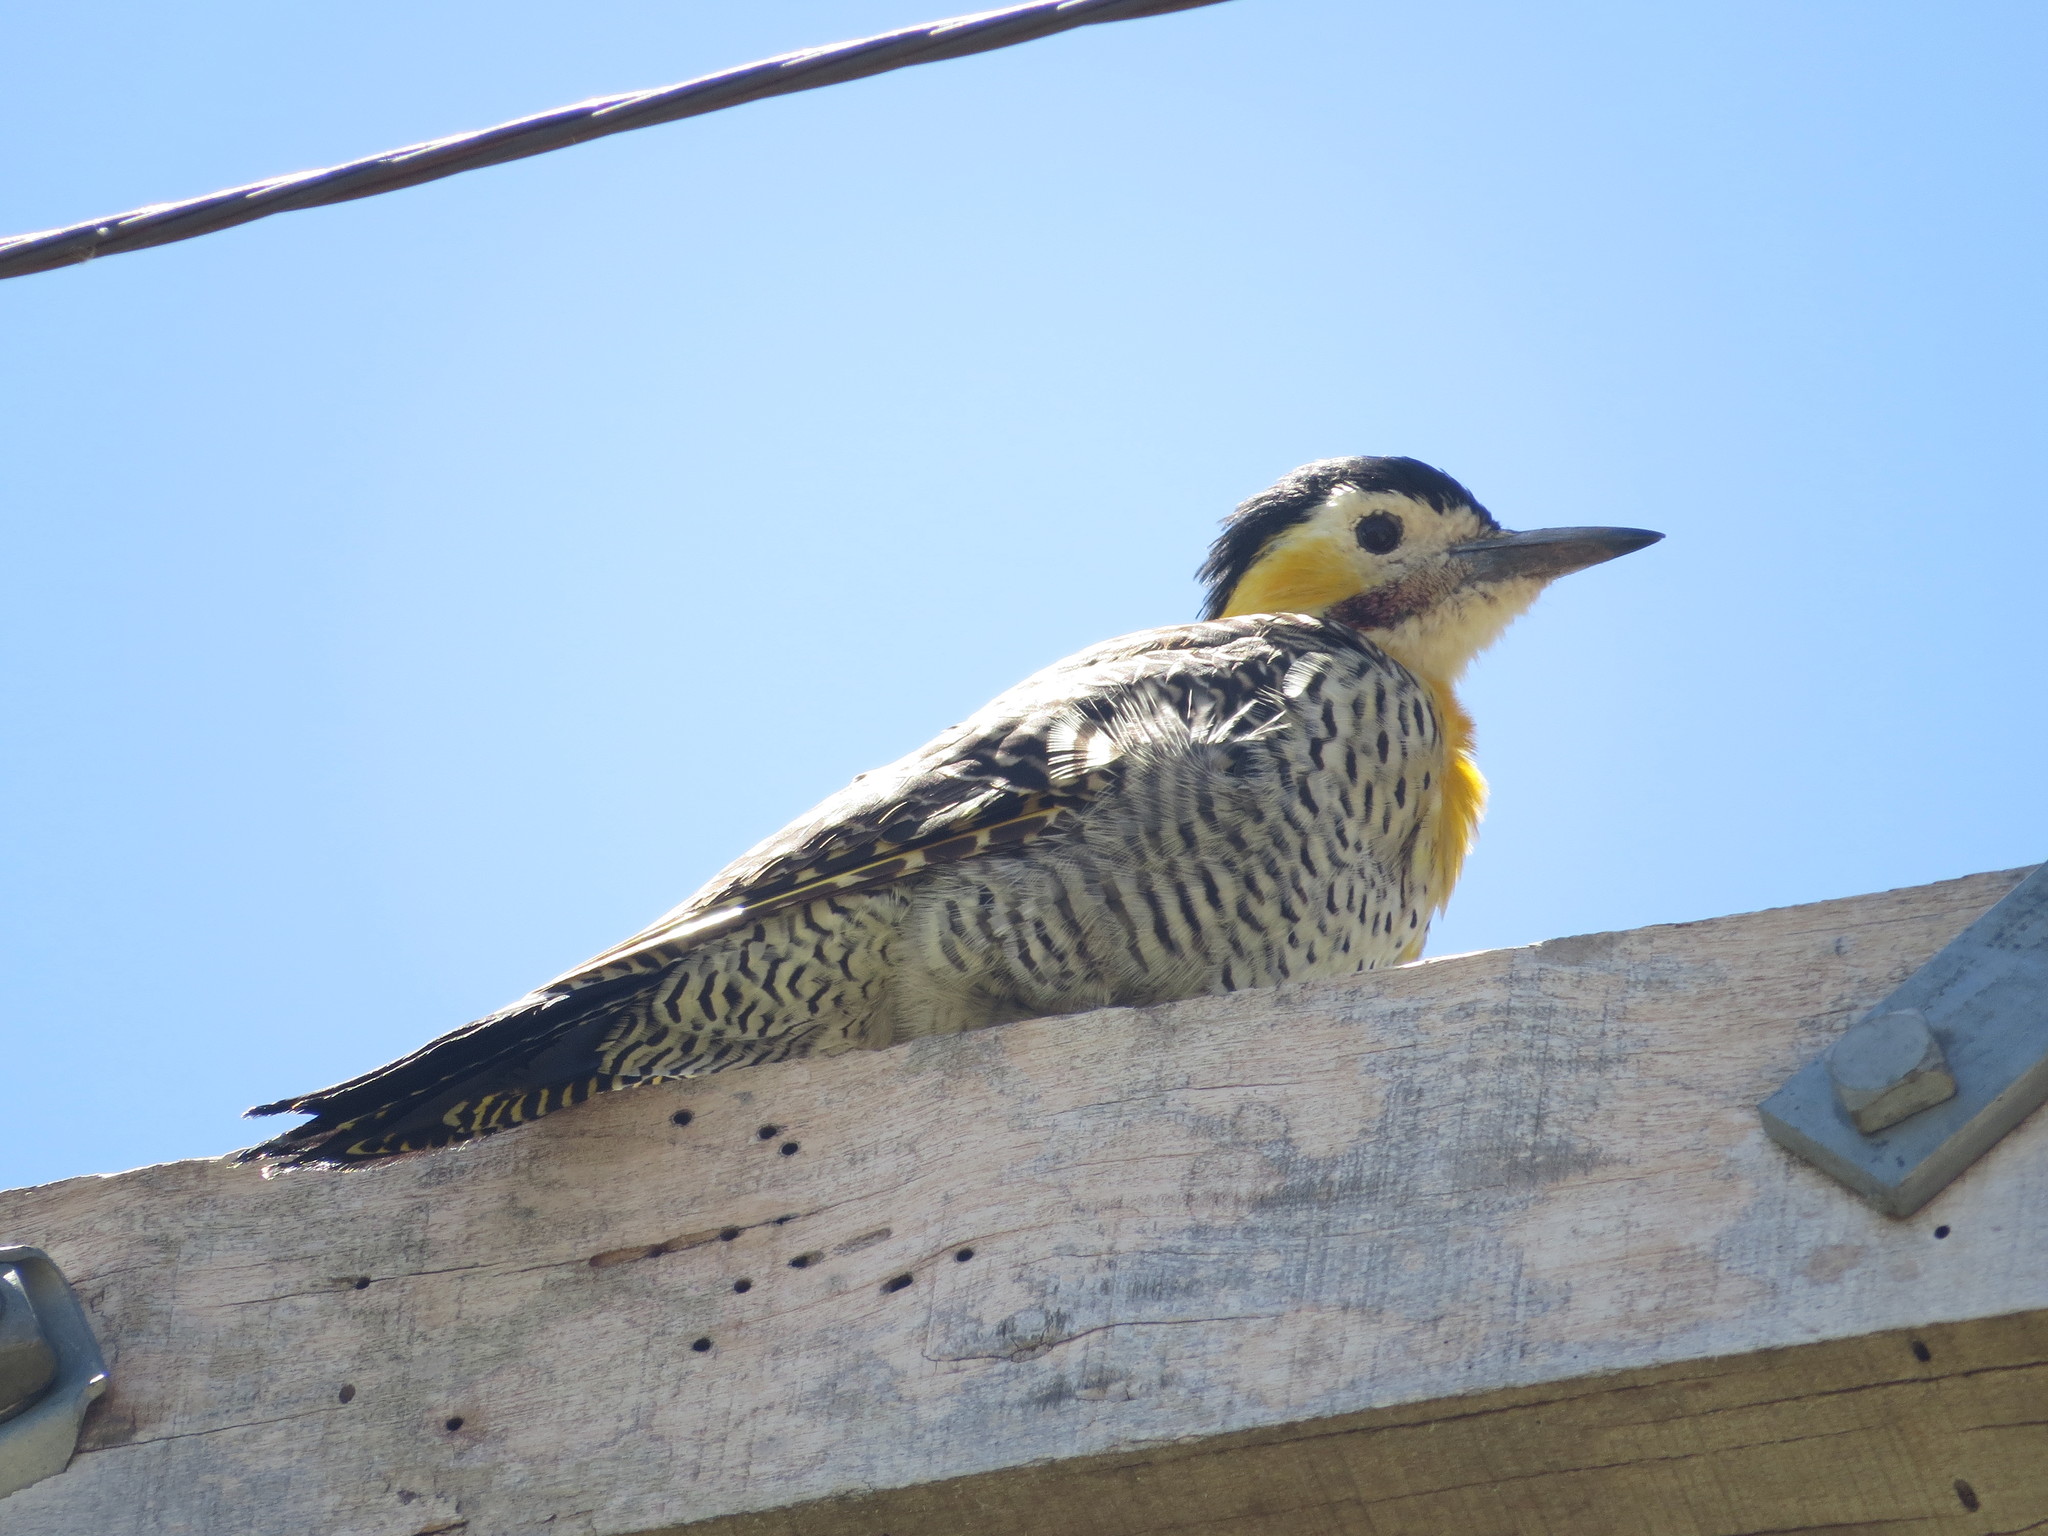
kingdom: Animalia
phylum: Chordata
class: Aves
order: Piciformes
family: Picidae
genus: Colaptes
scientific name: Colaptes campestris
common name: Campo flicker
